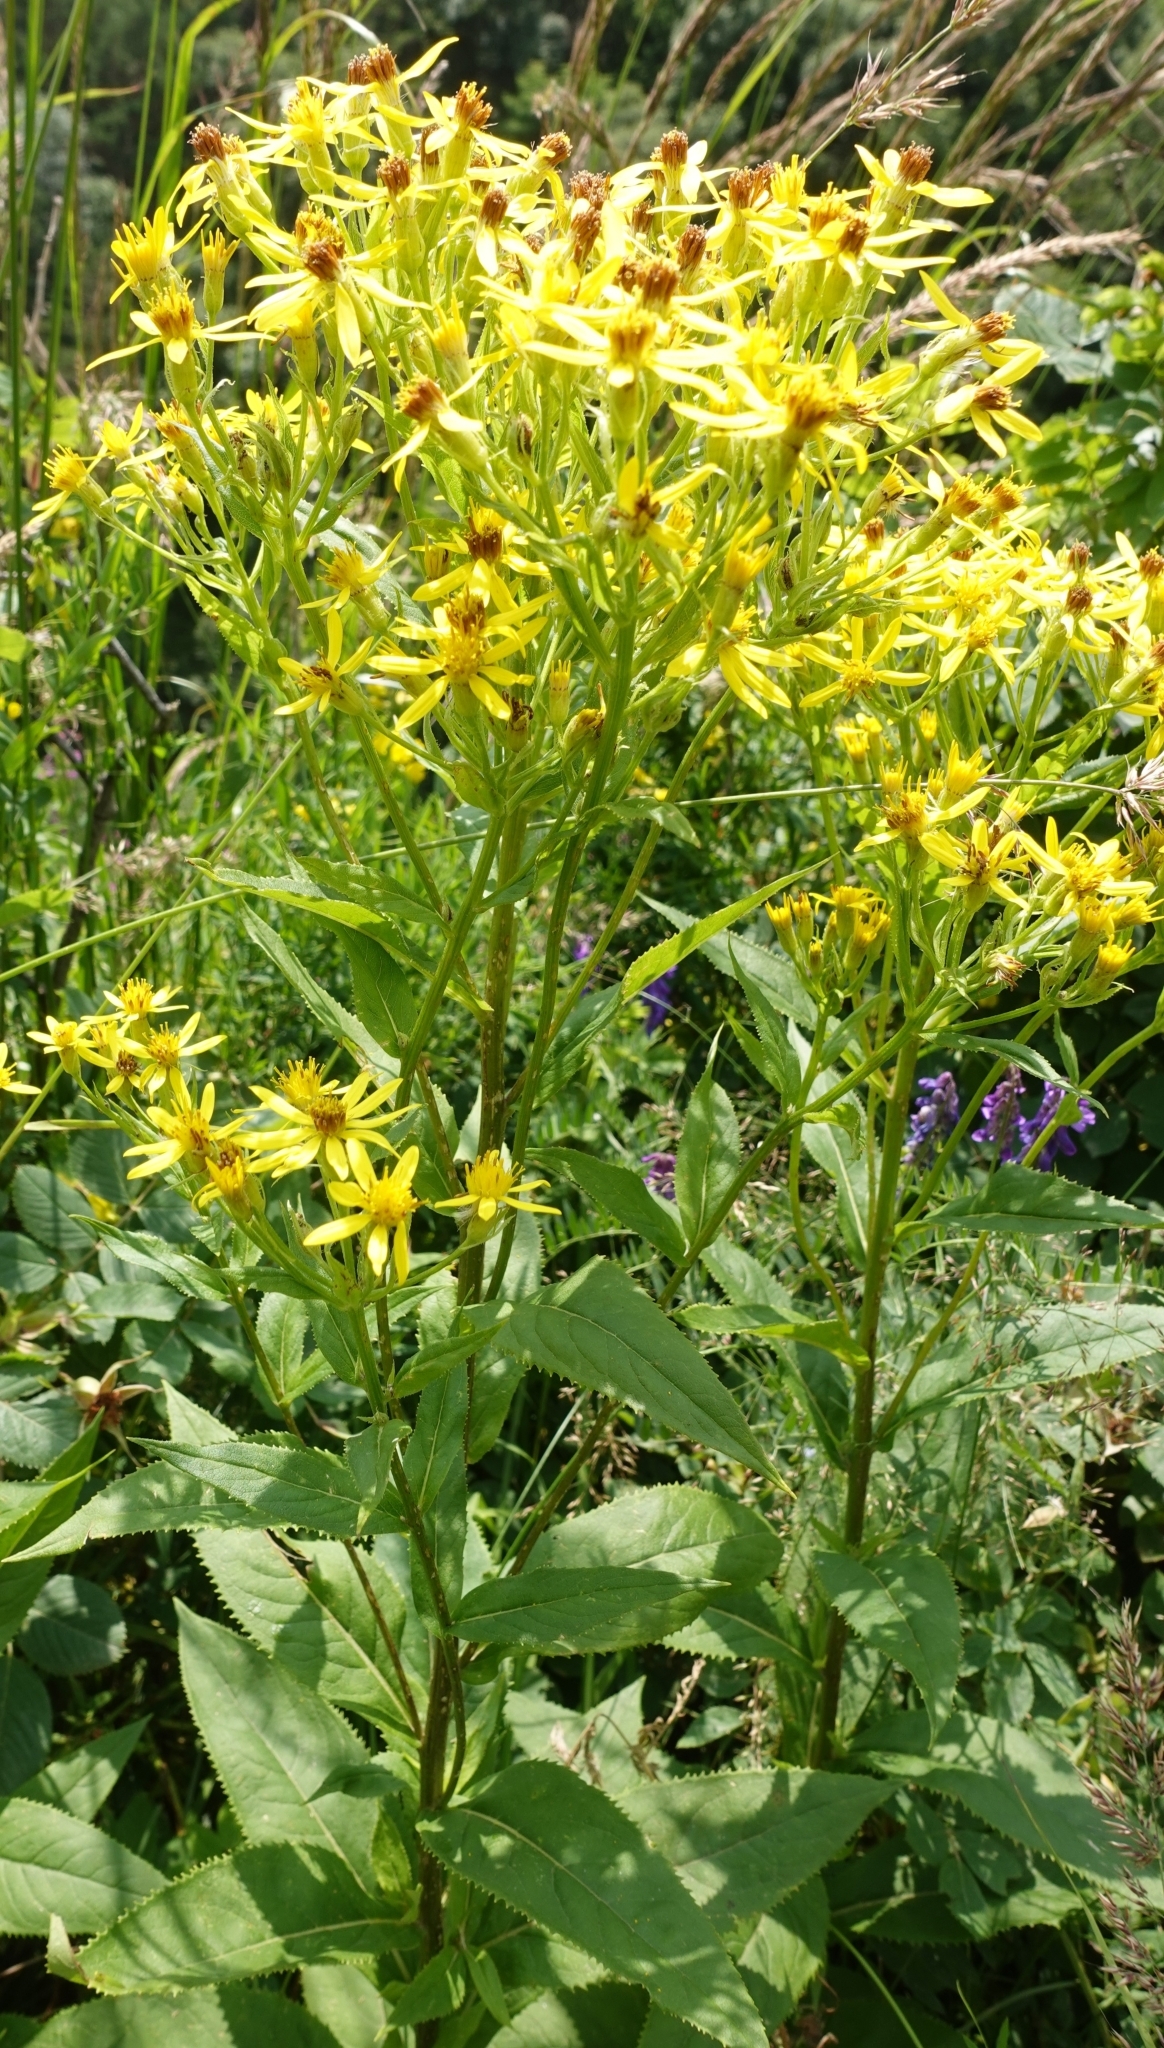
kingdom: Plantae
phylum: Tracheophyta
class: Magnoliopsida
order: Asterales
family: Asteraceae
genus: Senecio
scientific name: Senecio propinquus
